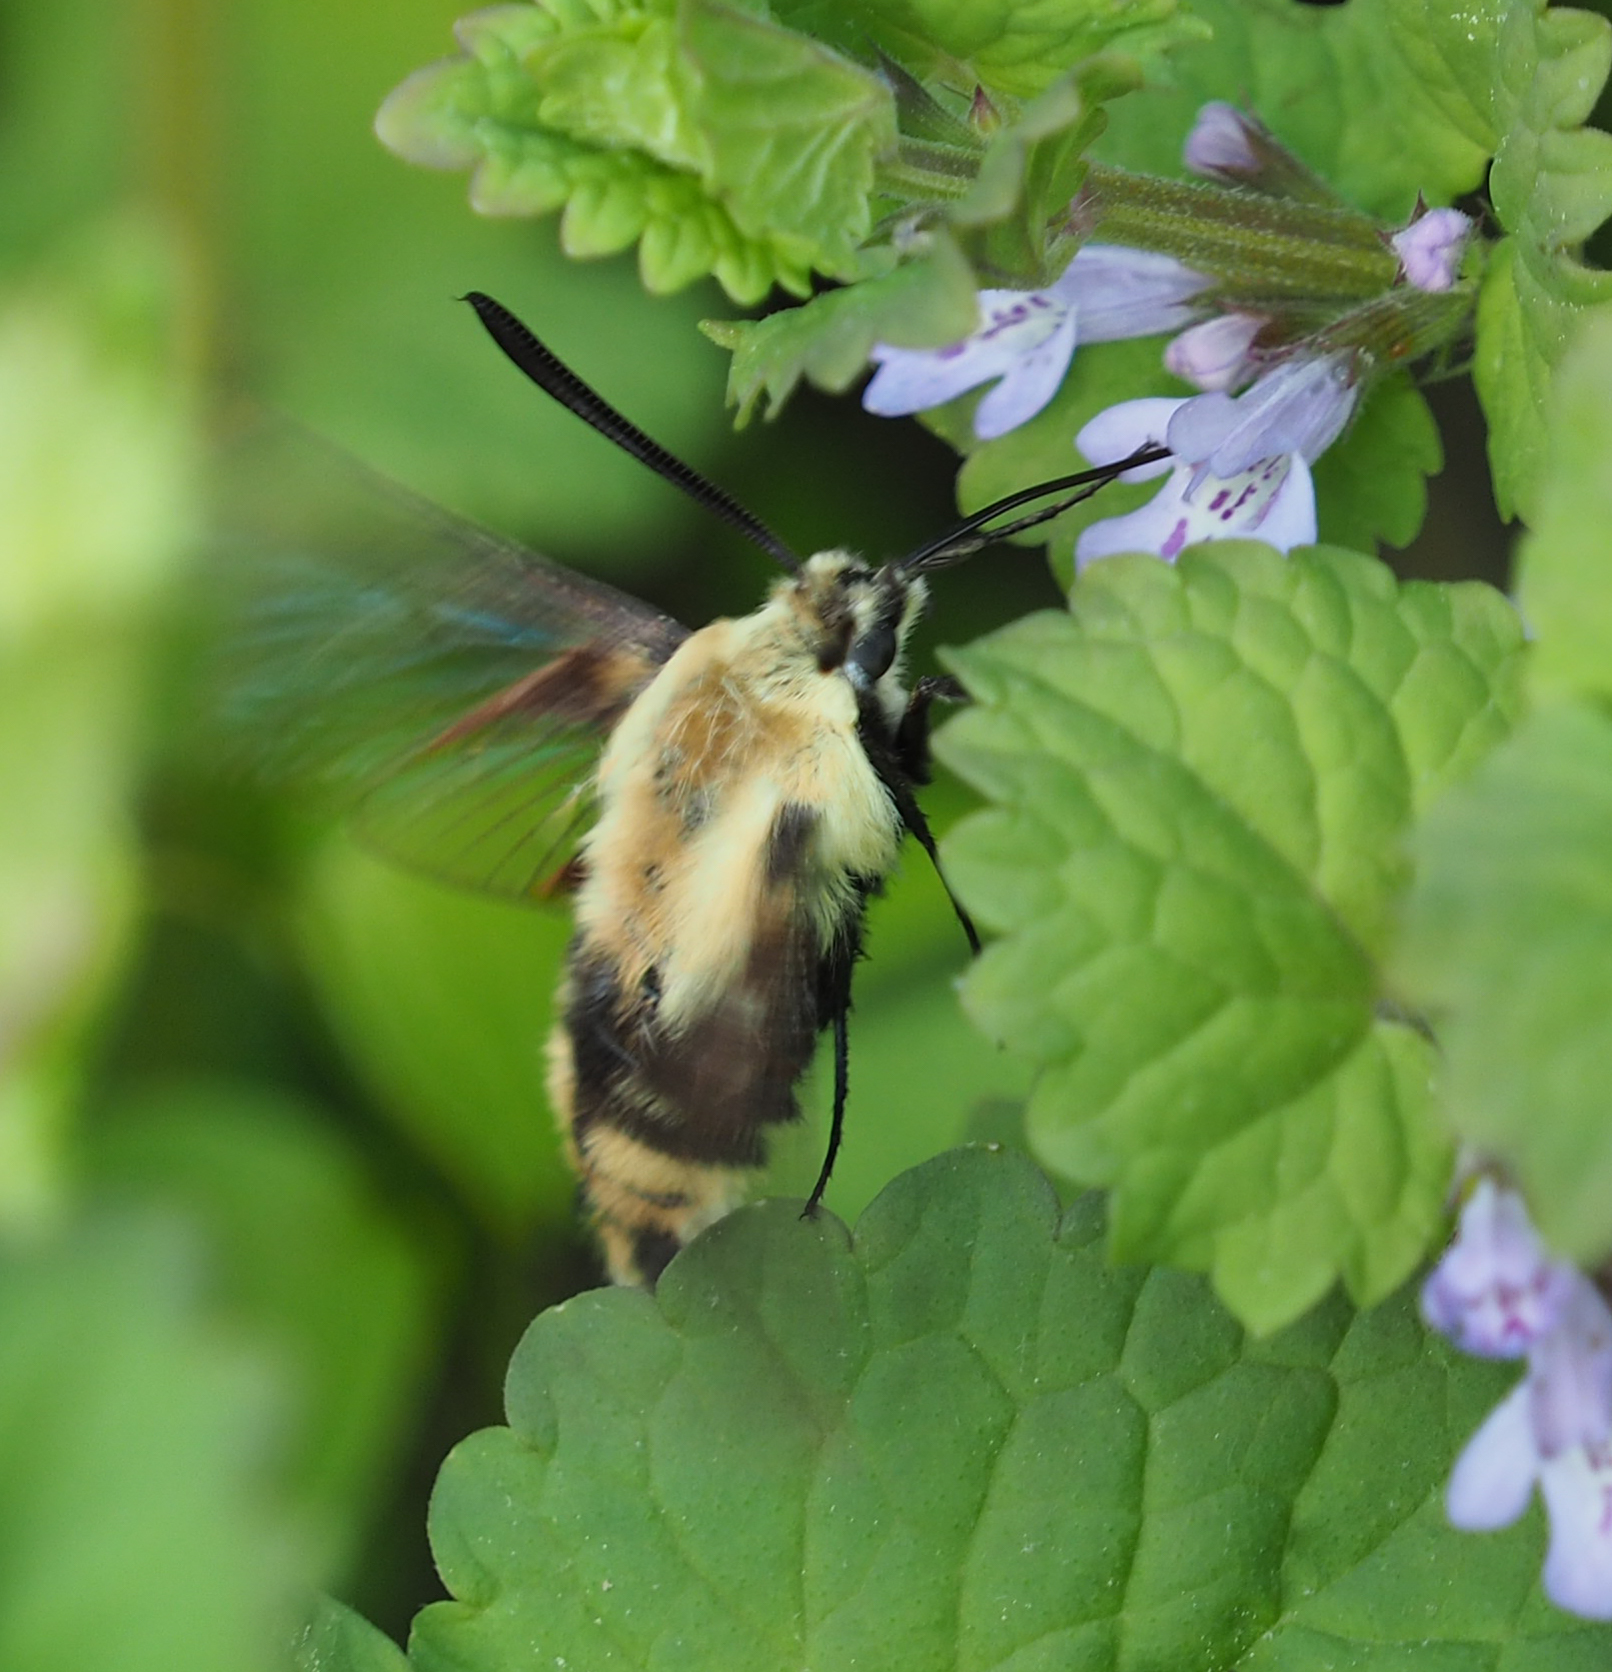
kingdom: Animalia
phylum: Arthropoda
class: Insecta
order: Lepidoptera
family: Sphingidae
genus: Hemaris
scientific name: Hemaris diffinis
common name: Bumblebee moth
